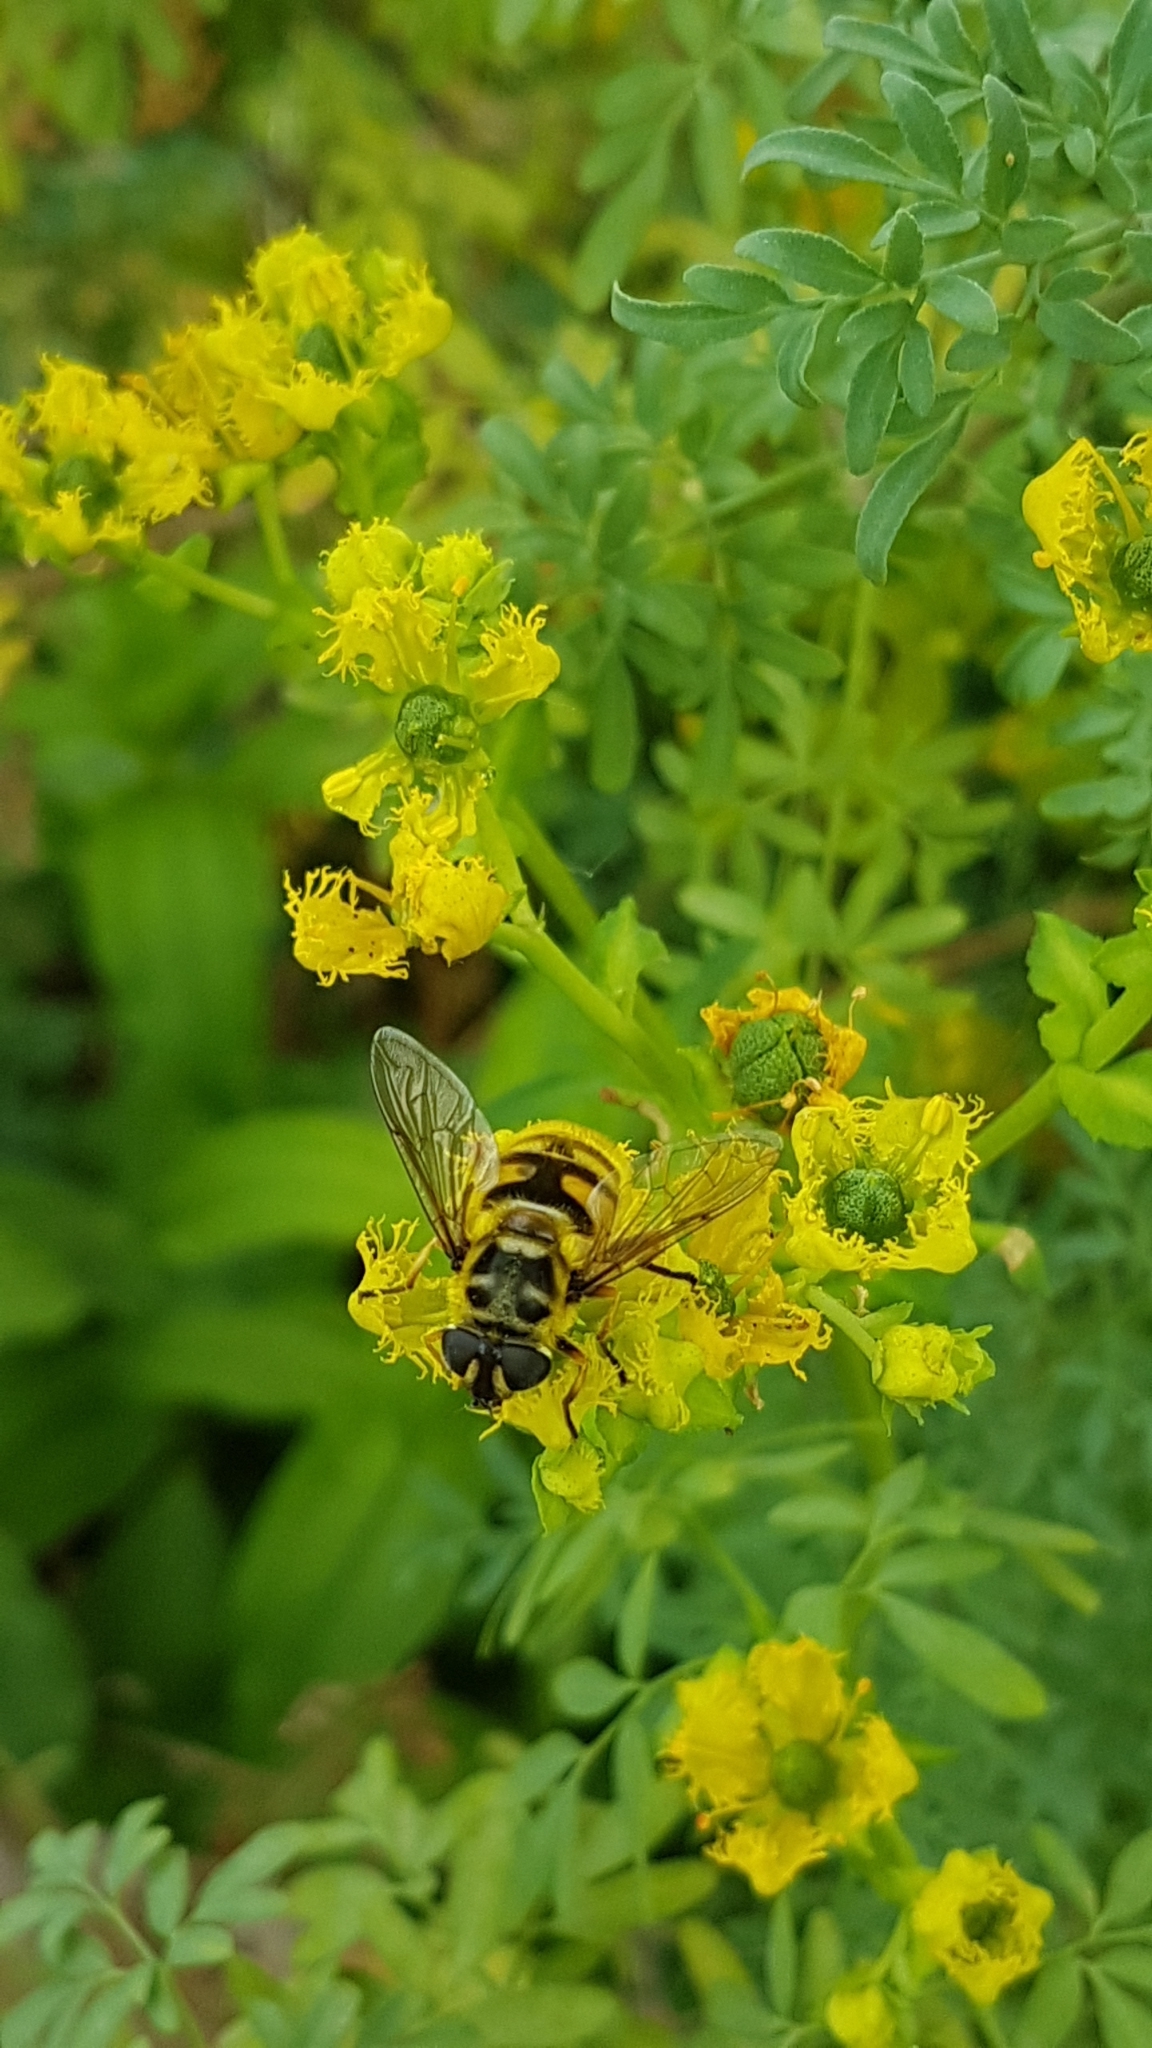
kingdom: Animalia
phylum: Arthropoda
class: Insecta
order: Diptera
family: Syrphidae
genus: Myathropa
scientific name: Myathropa florea
